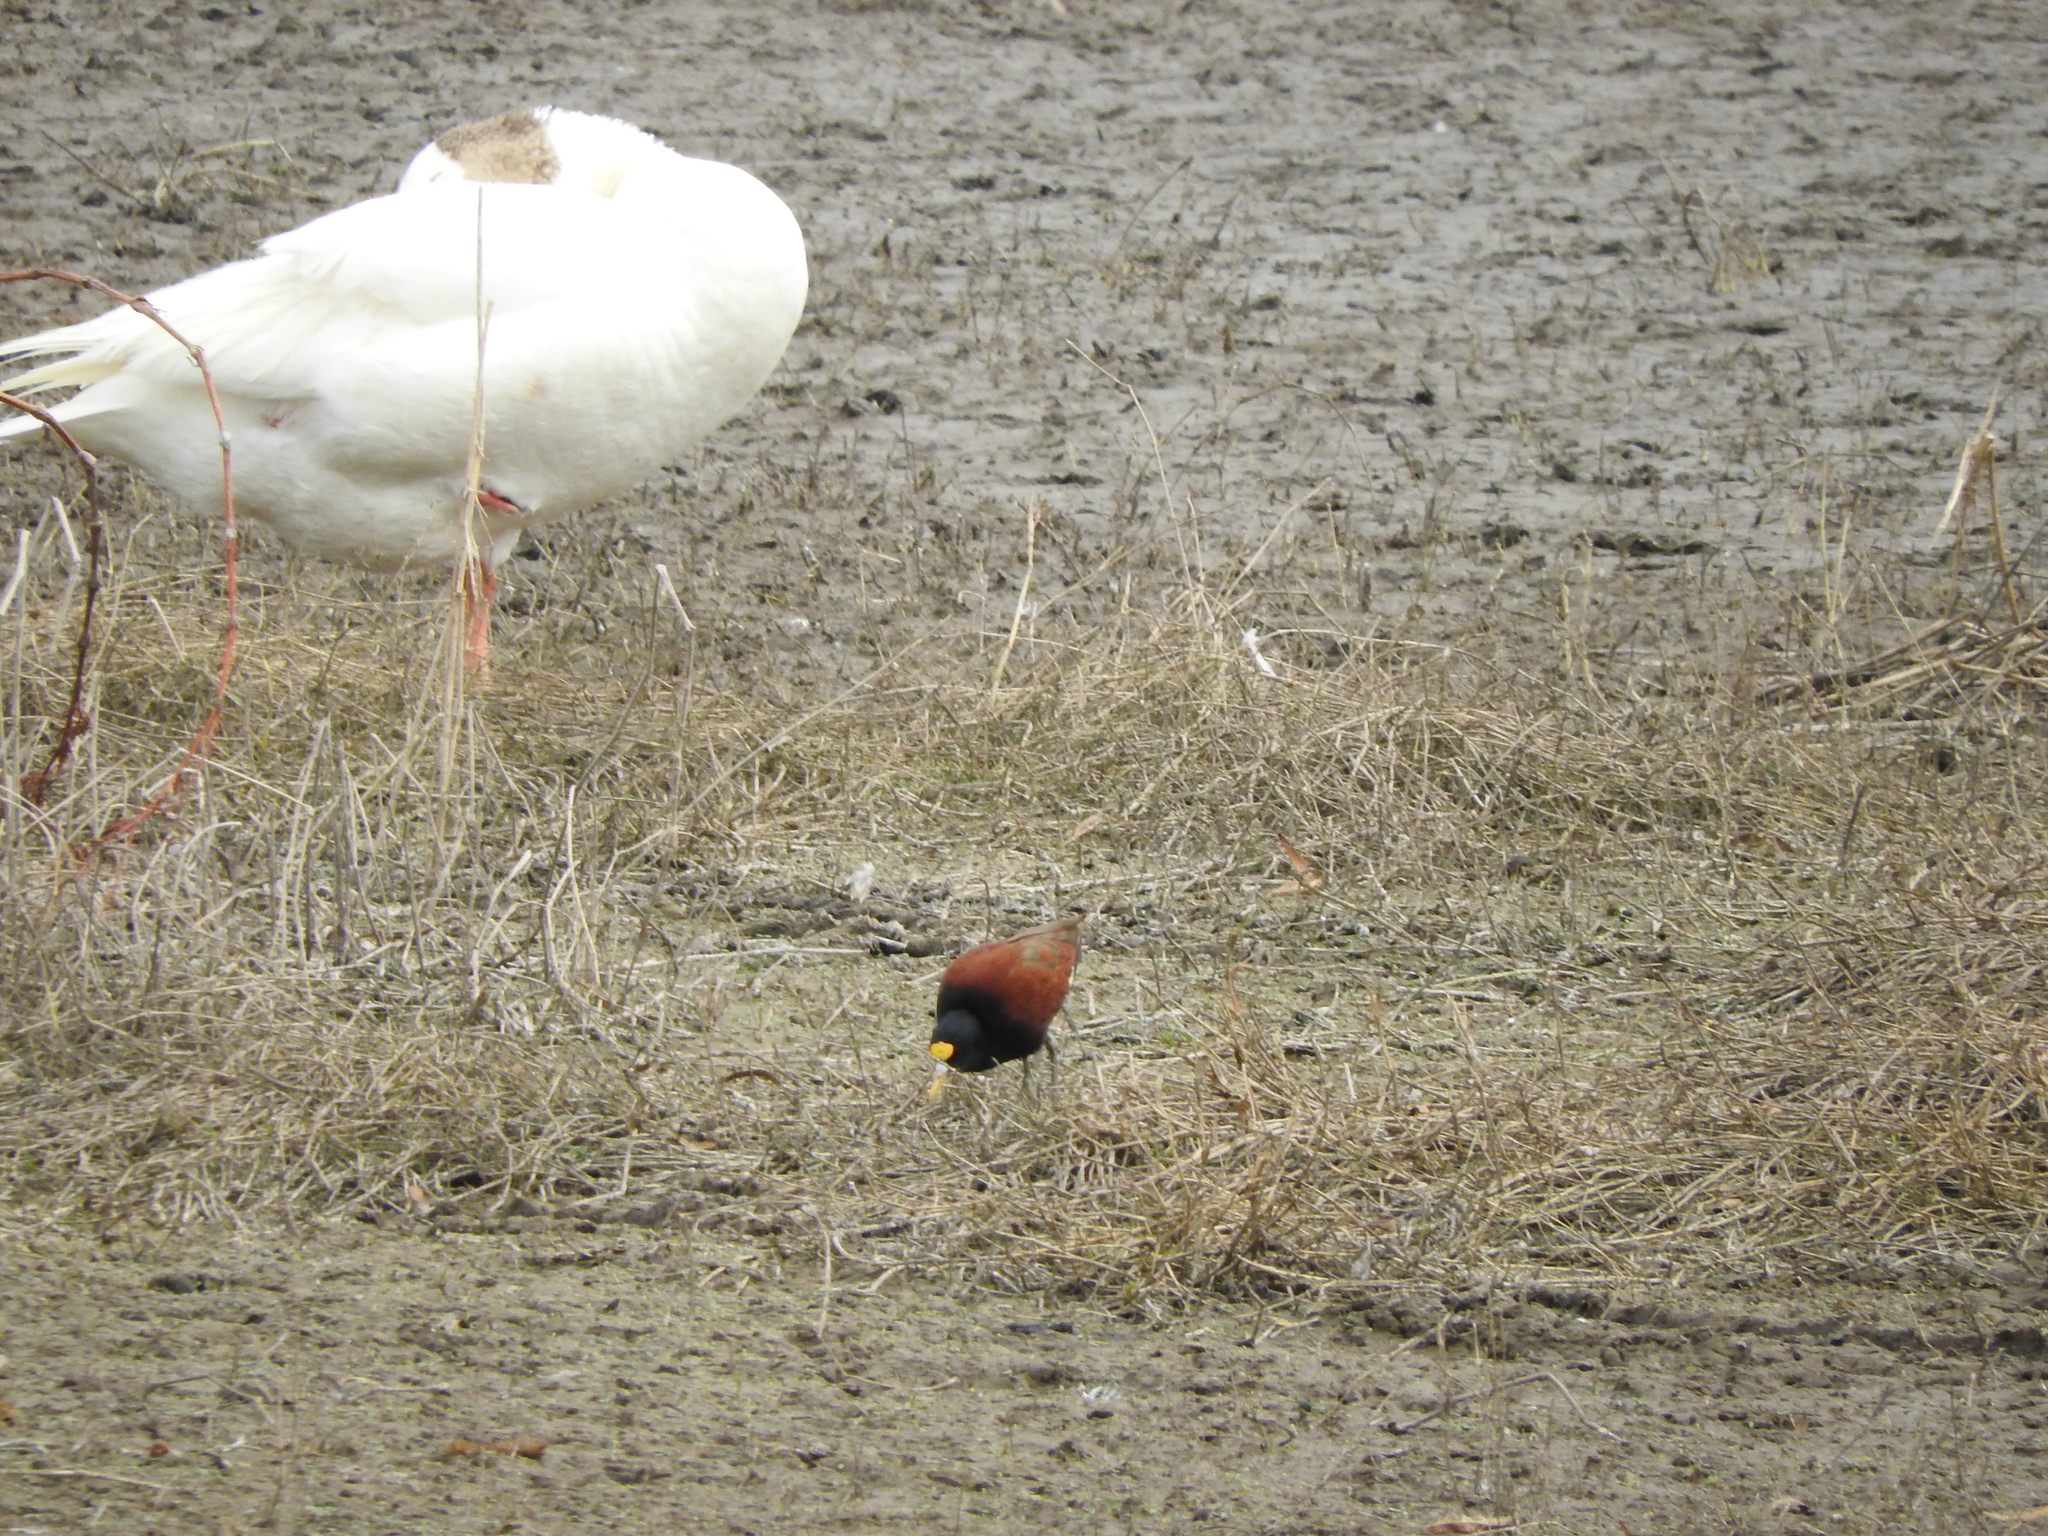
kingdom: Animalia
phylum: Chordata
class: Aves
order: Charadriiformes
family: Jacanidae
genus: Jacana
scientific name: Jacana spinosa
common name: Northern jacana
